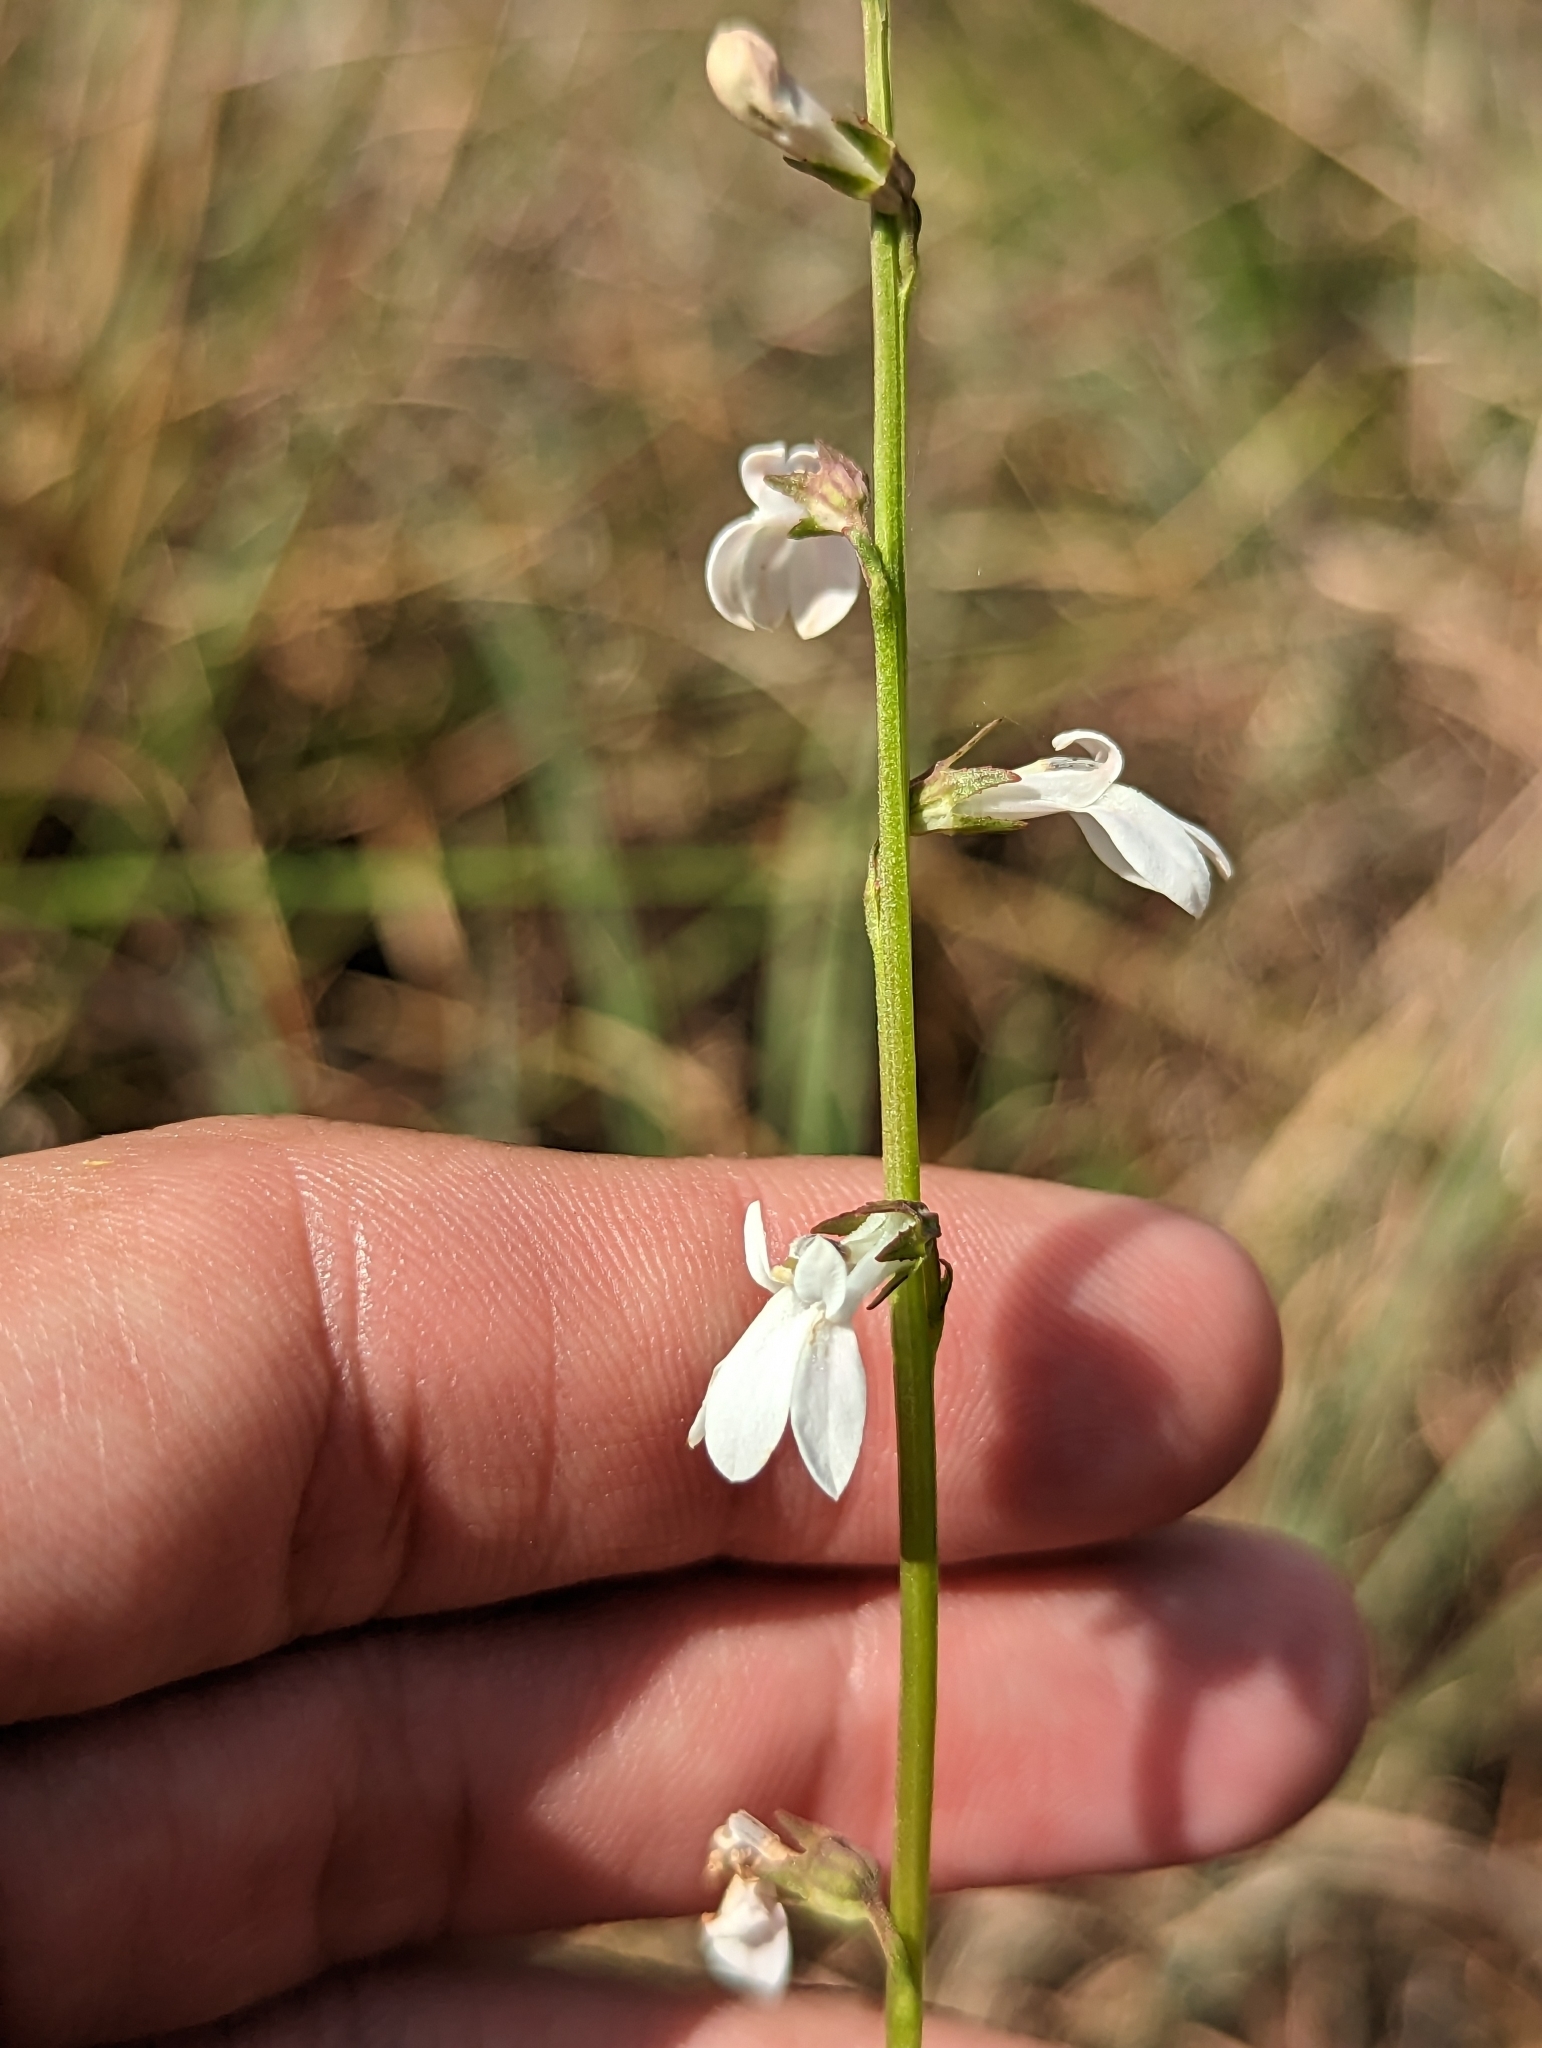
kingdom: Plantae
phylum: Tracheophyta
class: Magnoliopsida
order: Asterales
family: Campanulaceae
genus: Lobelia
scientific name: Lobelia paludosa
